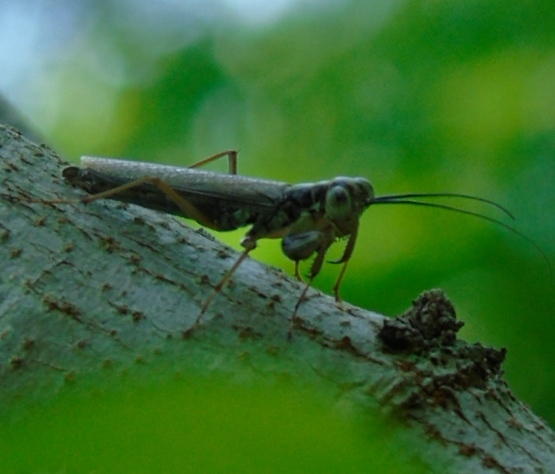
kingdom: Animalia
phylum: Arthropoda
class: Insecta
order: Mantodea
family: Mantoididae
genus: Mantoida
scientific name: Mantoida maya
